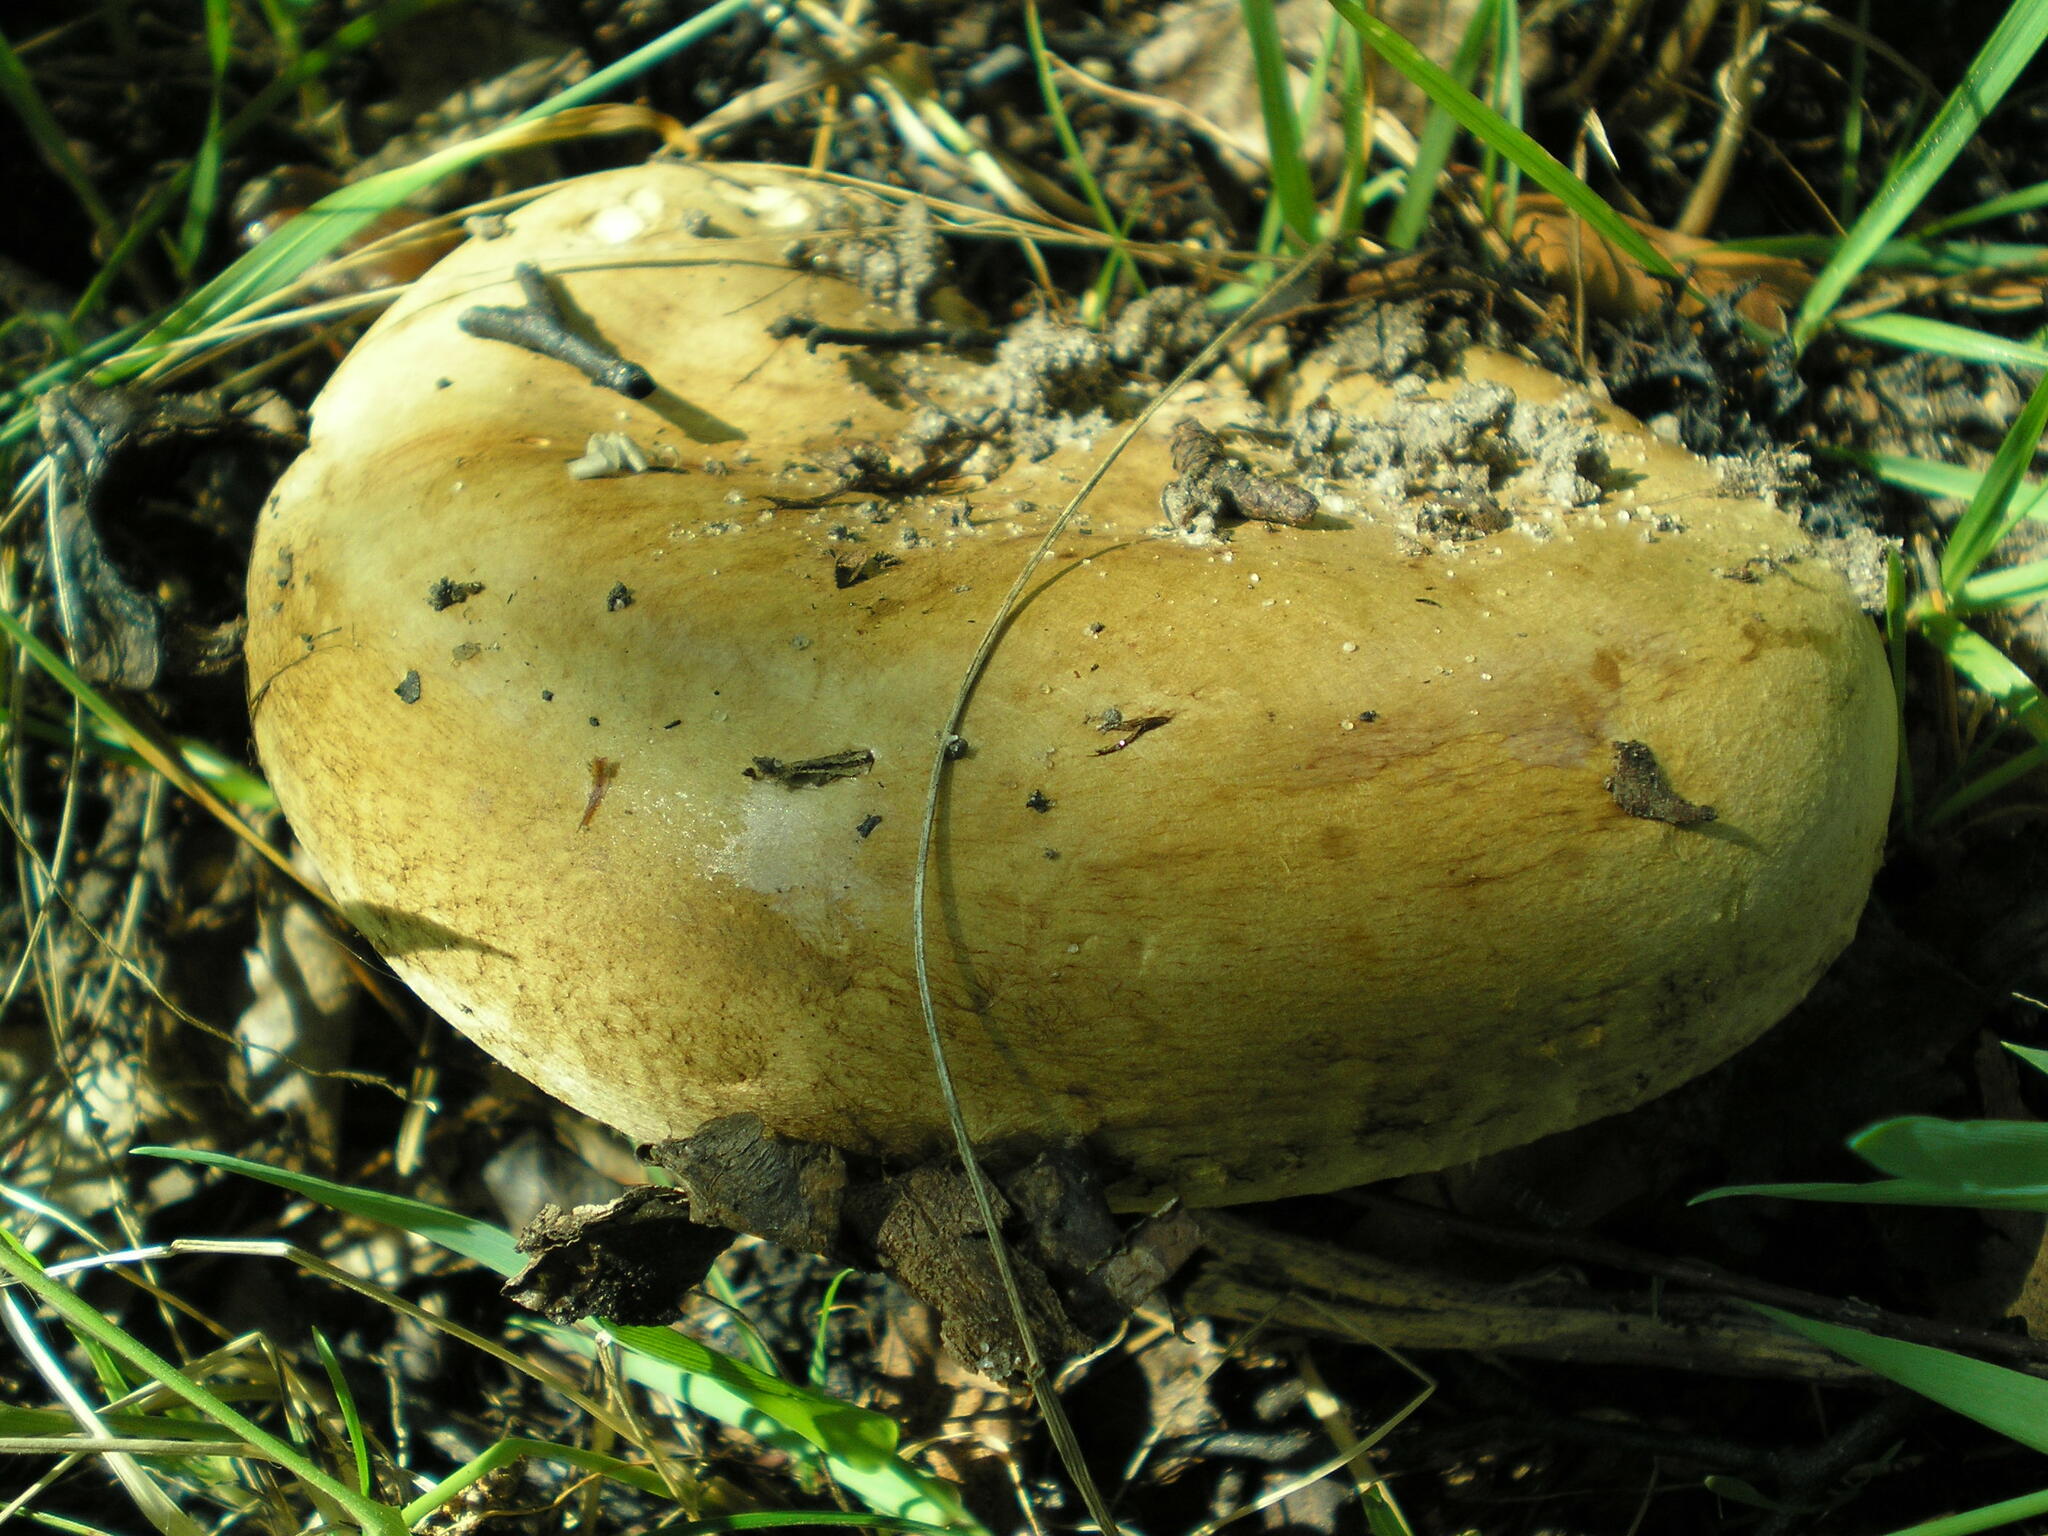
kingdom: Fungi
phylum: Basidiomycota
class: Agaricomycetes
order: Boletales
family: Paxillaceae
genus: Paxillus
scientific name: Paxillus involutus
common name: Brown roll rim
